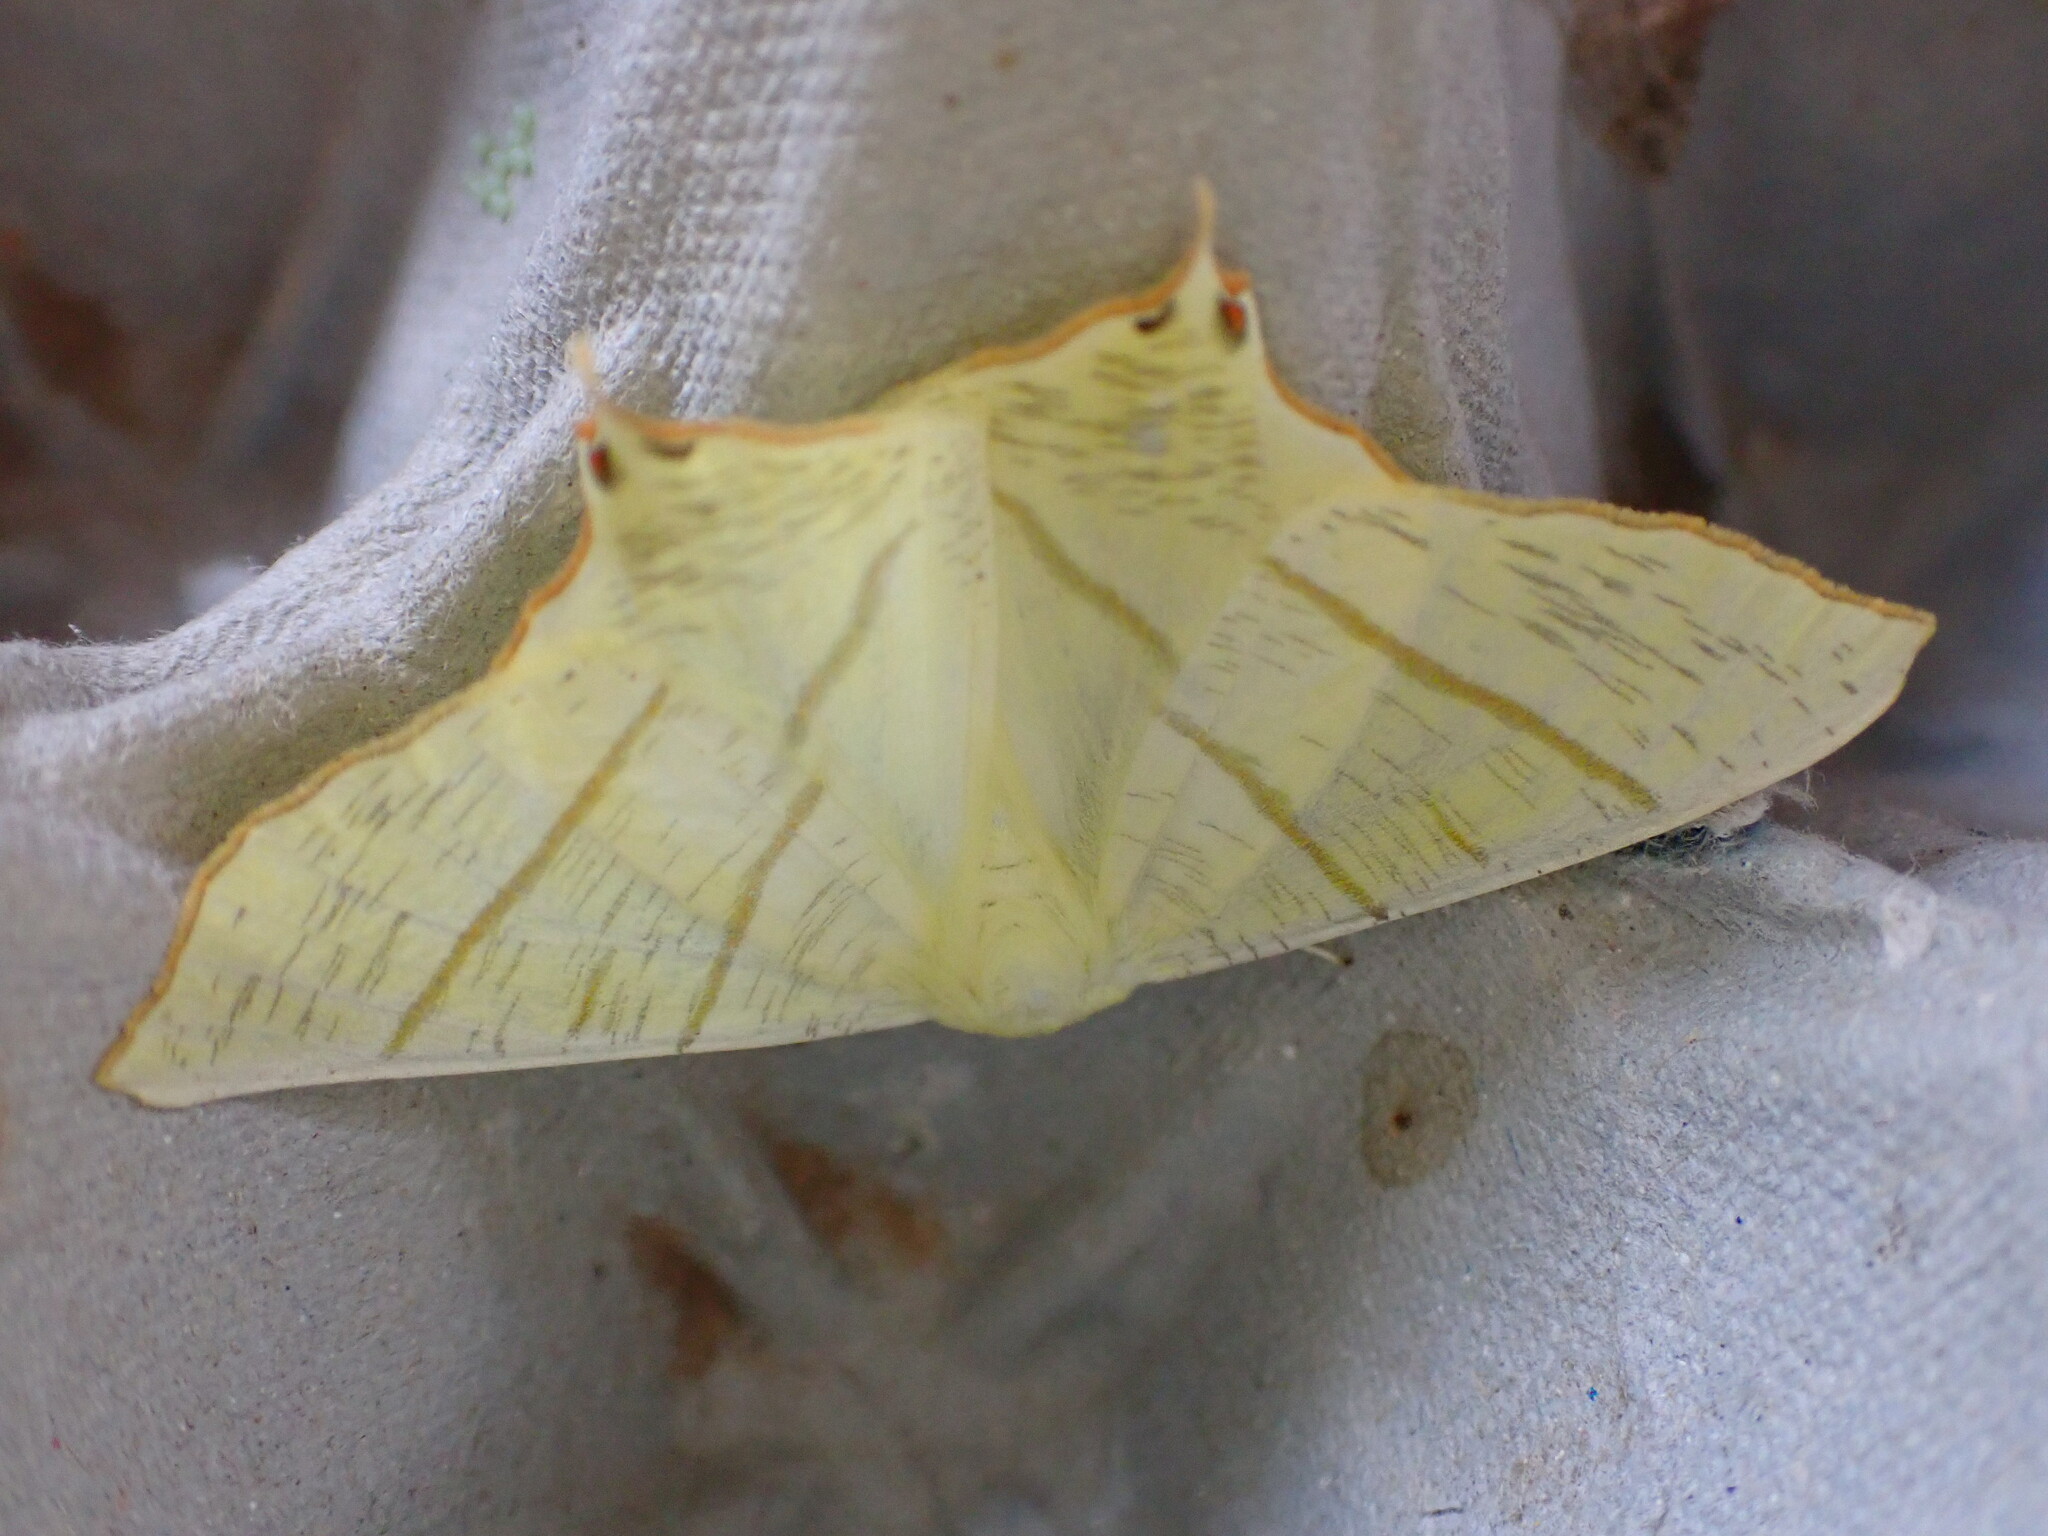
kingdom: Animalia
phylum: Arthropoda
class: Insecta
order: Lepidoptera
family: Geometridae
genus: Ourapteryx
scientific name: Ourapteryx sambucaria
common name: Swallow-tailed moth
